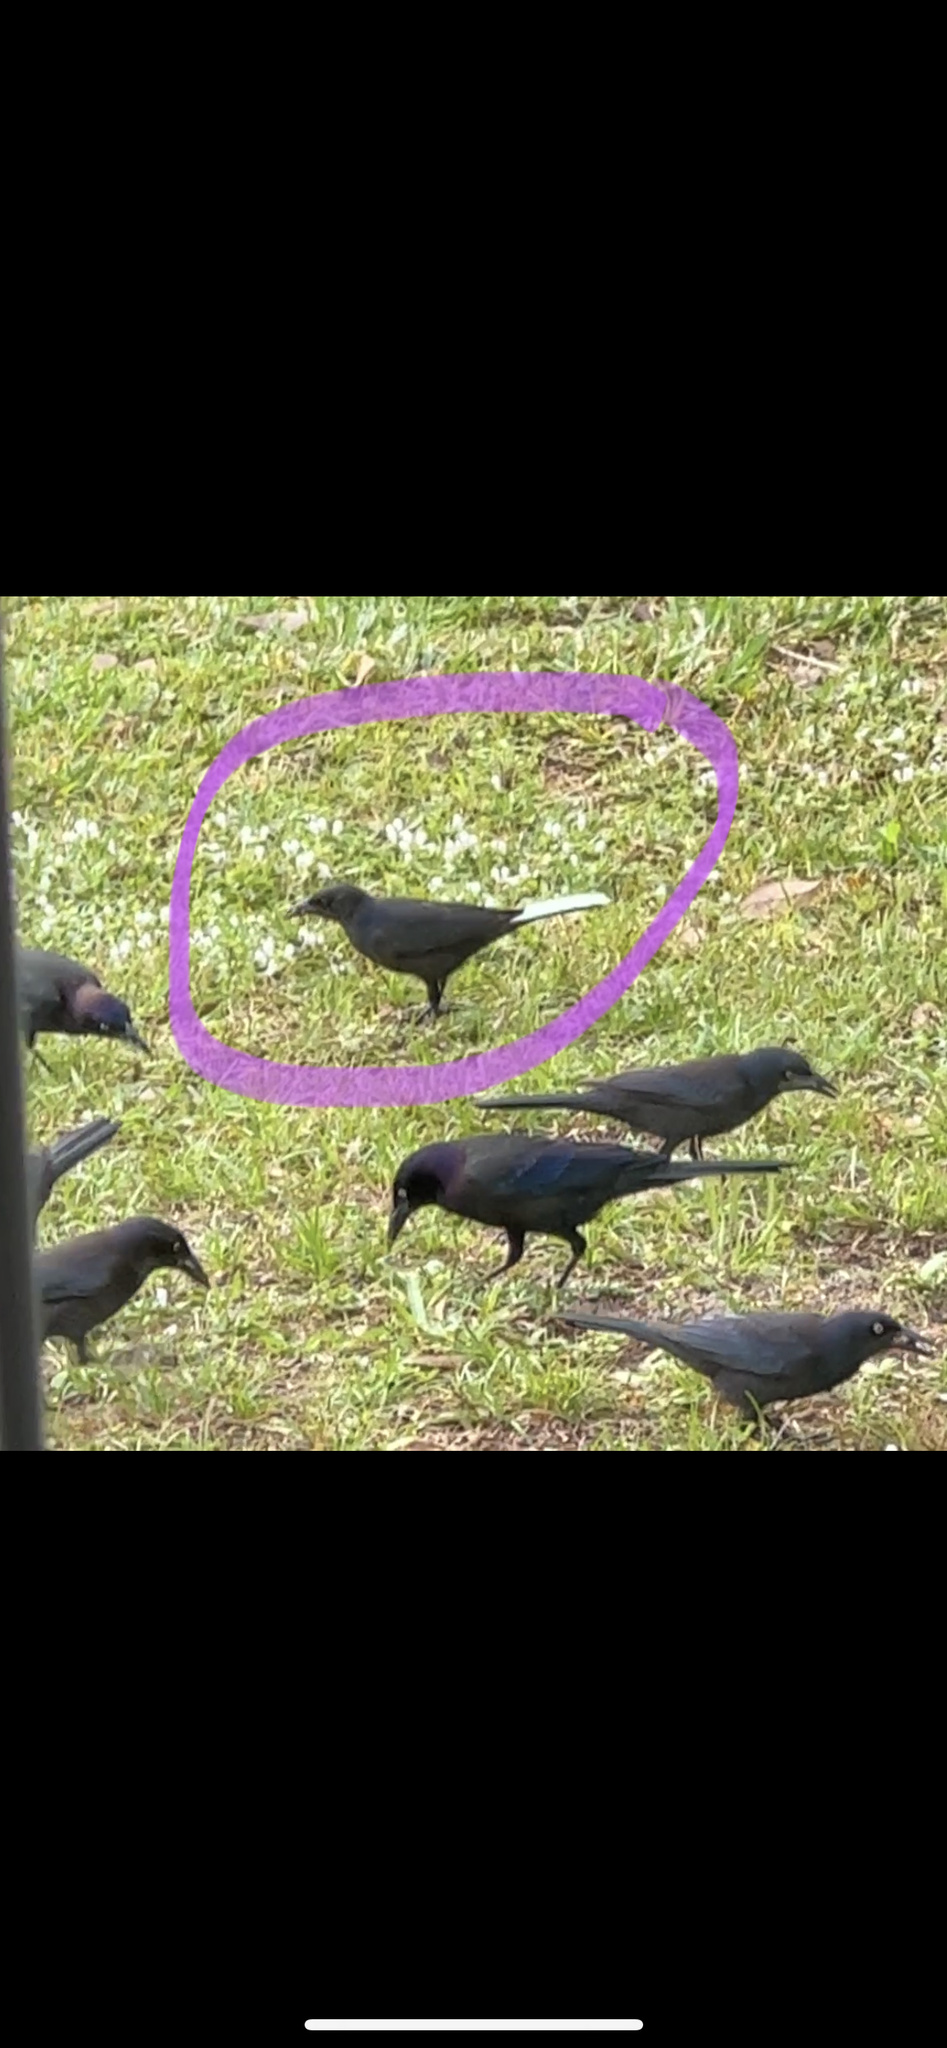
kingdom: Animalia
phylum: Chordata
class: Aves
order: Passeriformes
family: Icteridae
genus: Quiscalus
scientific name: Quiscalus quiscula
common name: Common grackle
